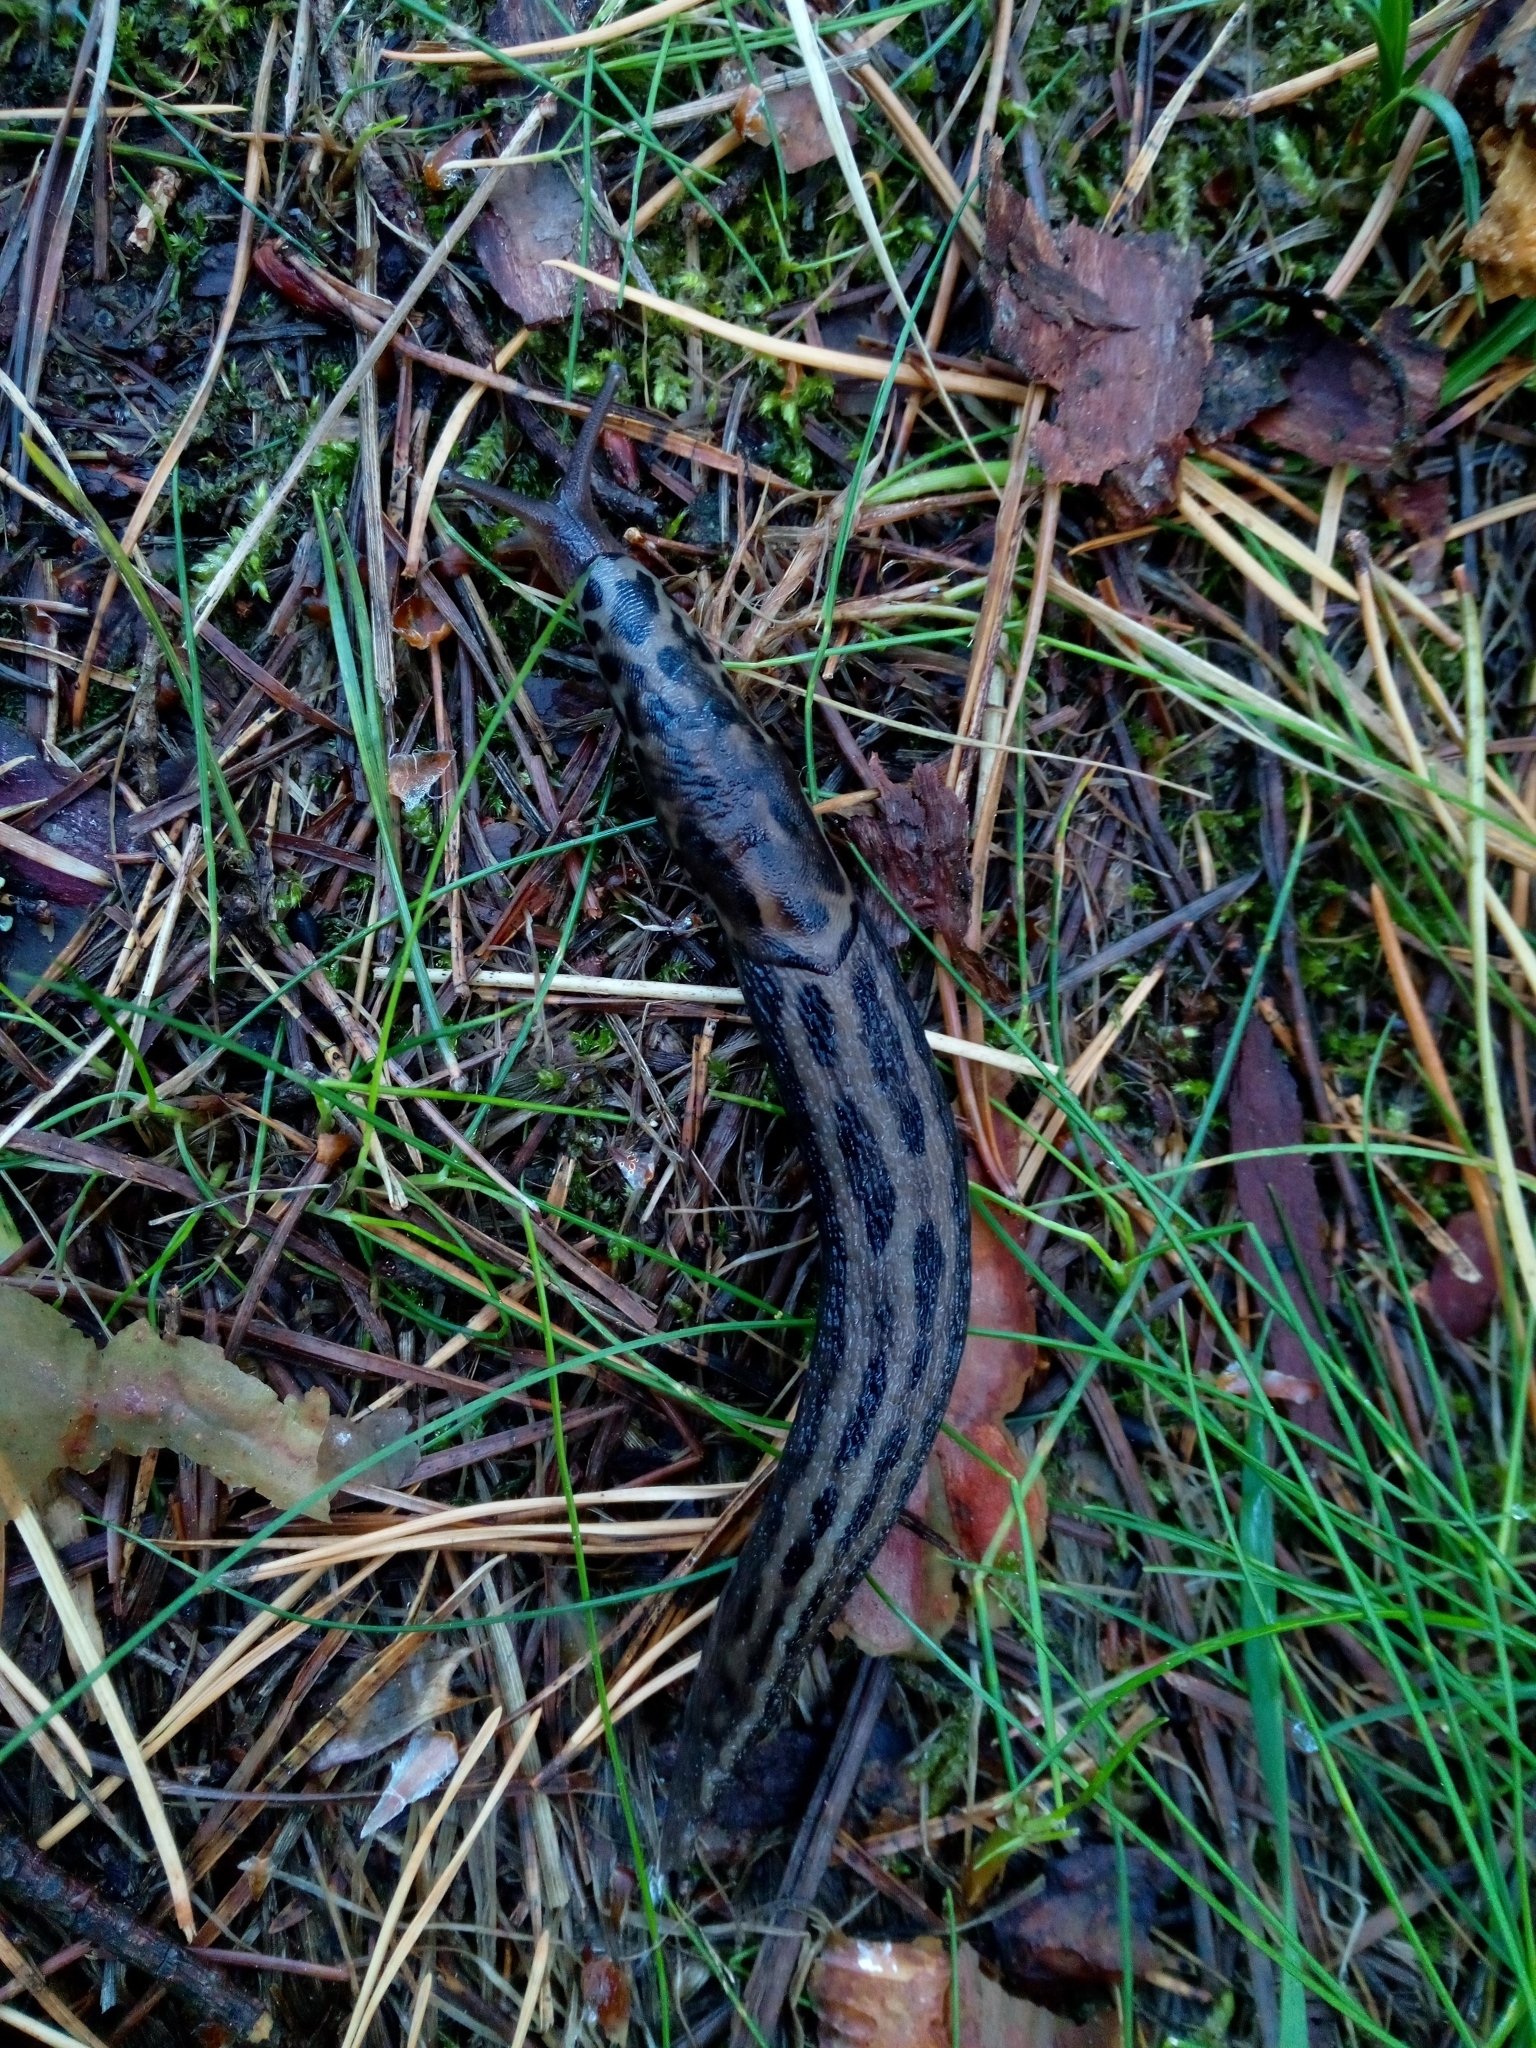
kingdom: Animalia
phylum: Mollusca
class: Gastropoda
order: Stylommatophora
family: Limacidae
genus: Limax
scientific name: Limax maximus
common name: Great grey slug
